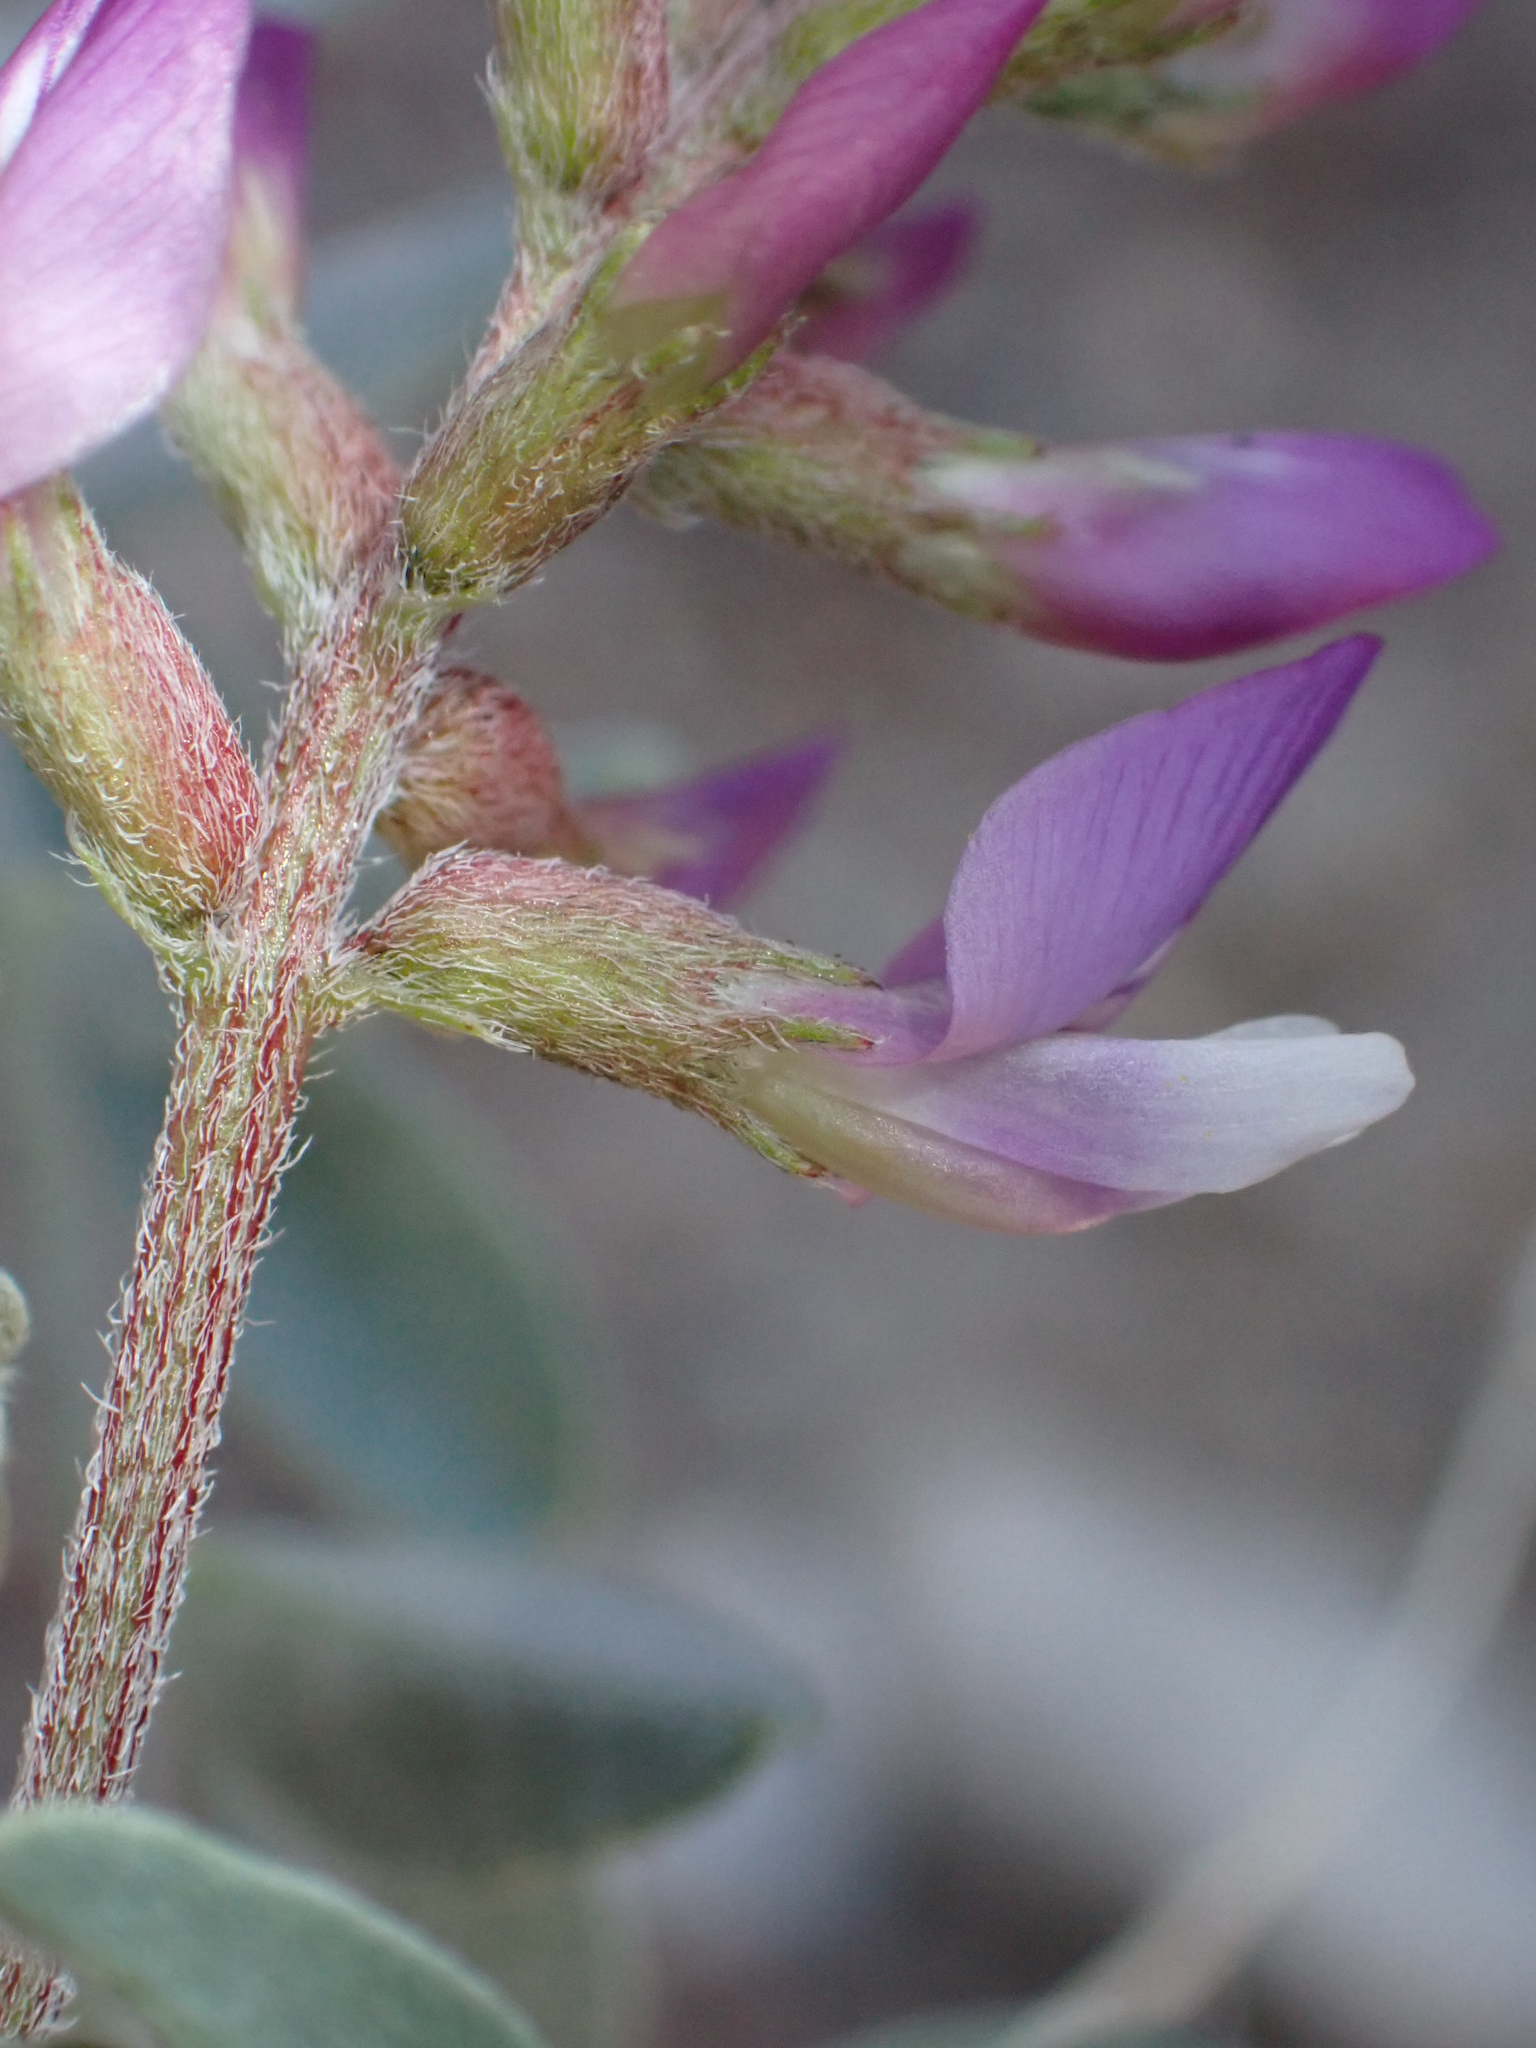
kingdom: Plantae
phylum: Tracheophyta
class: Magnoliopsida
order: Fabales
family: Fabaceae
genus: Astragalus
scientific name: Astragalus lentiginosus
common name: Freckled milkvetch
